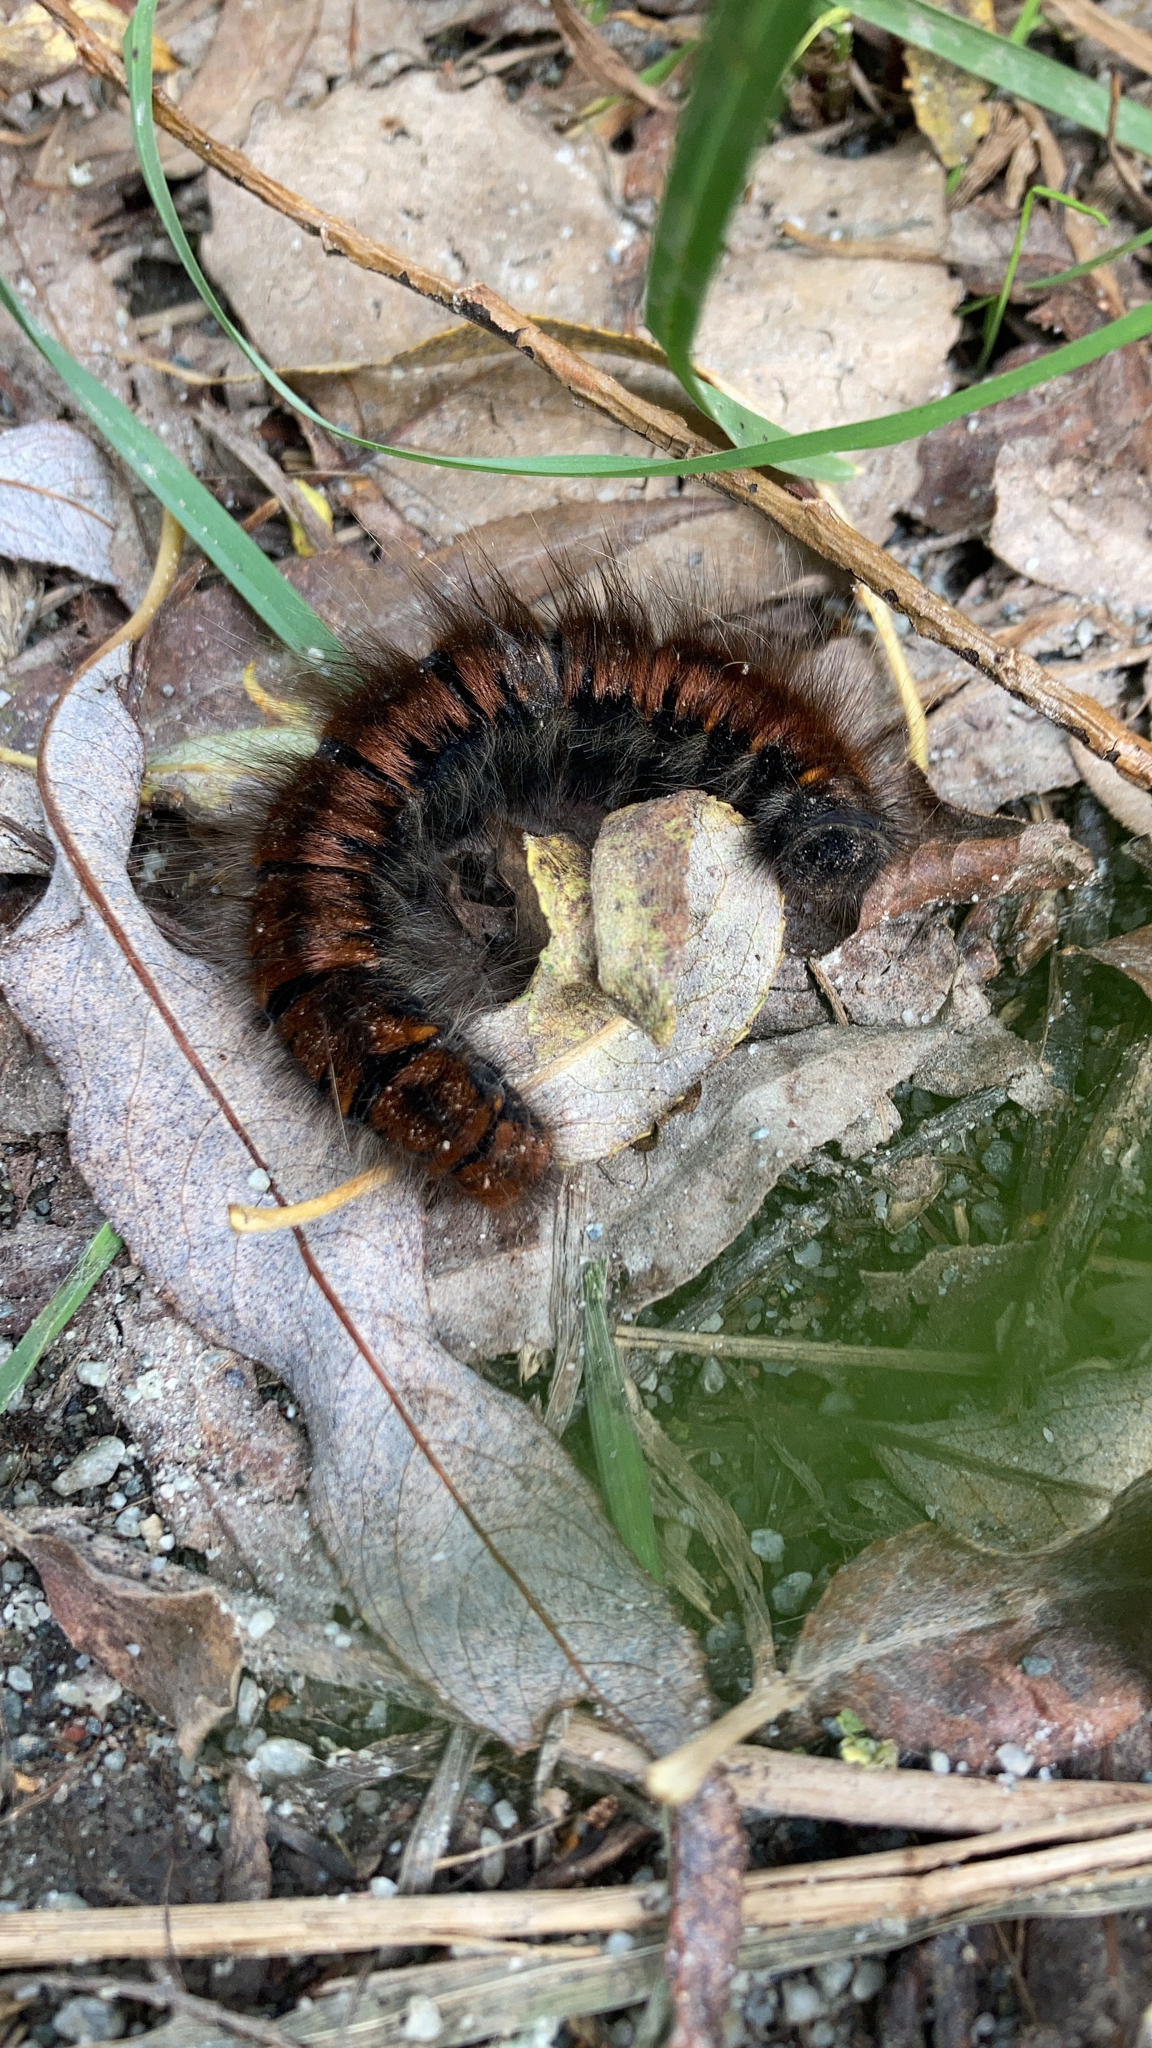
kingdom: Animalia
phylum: Arthropoda
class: Insecta
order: Lepidoptera
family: Lasiocampidae
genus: Macrothylacia
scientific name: Macrothylacia rubi
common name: Fox moth
